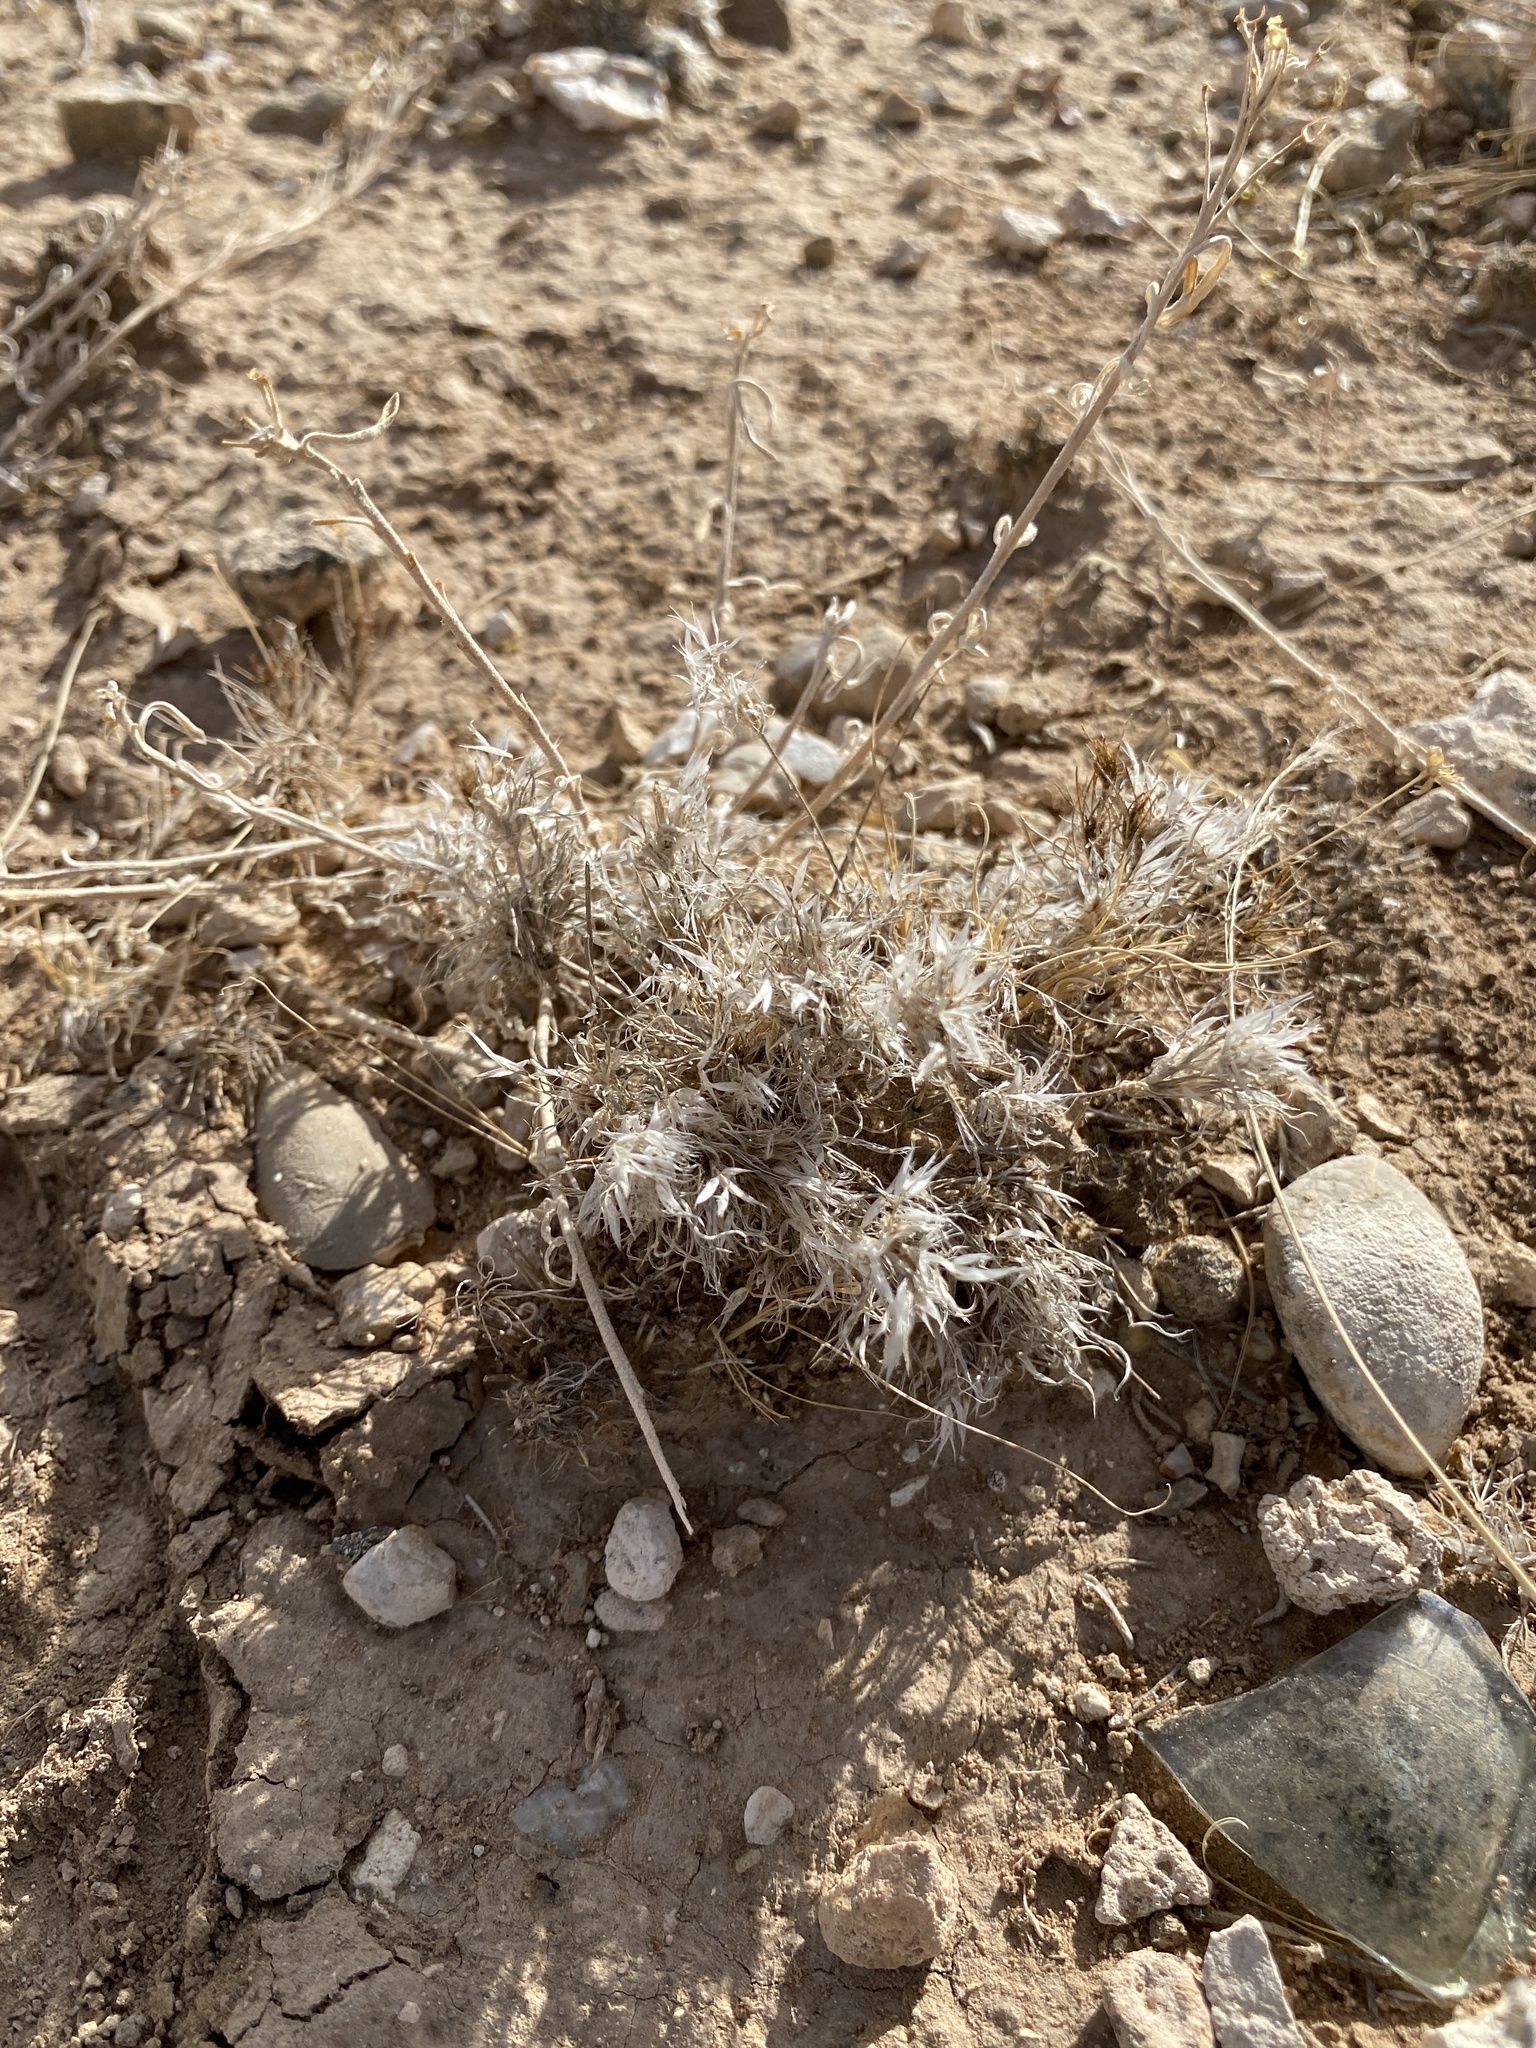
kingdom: Plantae
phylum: Tracheophyta
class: Liliopsida
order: Poales
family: Poaceae
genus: Dasyochloa
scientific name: Dasyochloa pulchella
